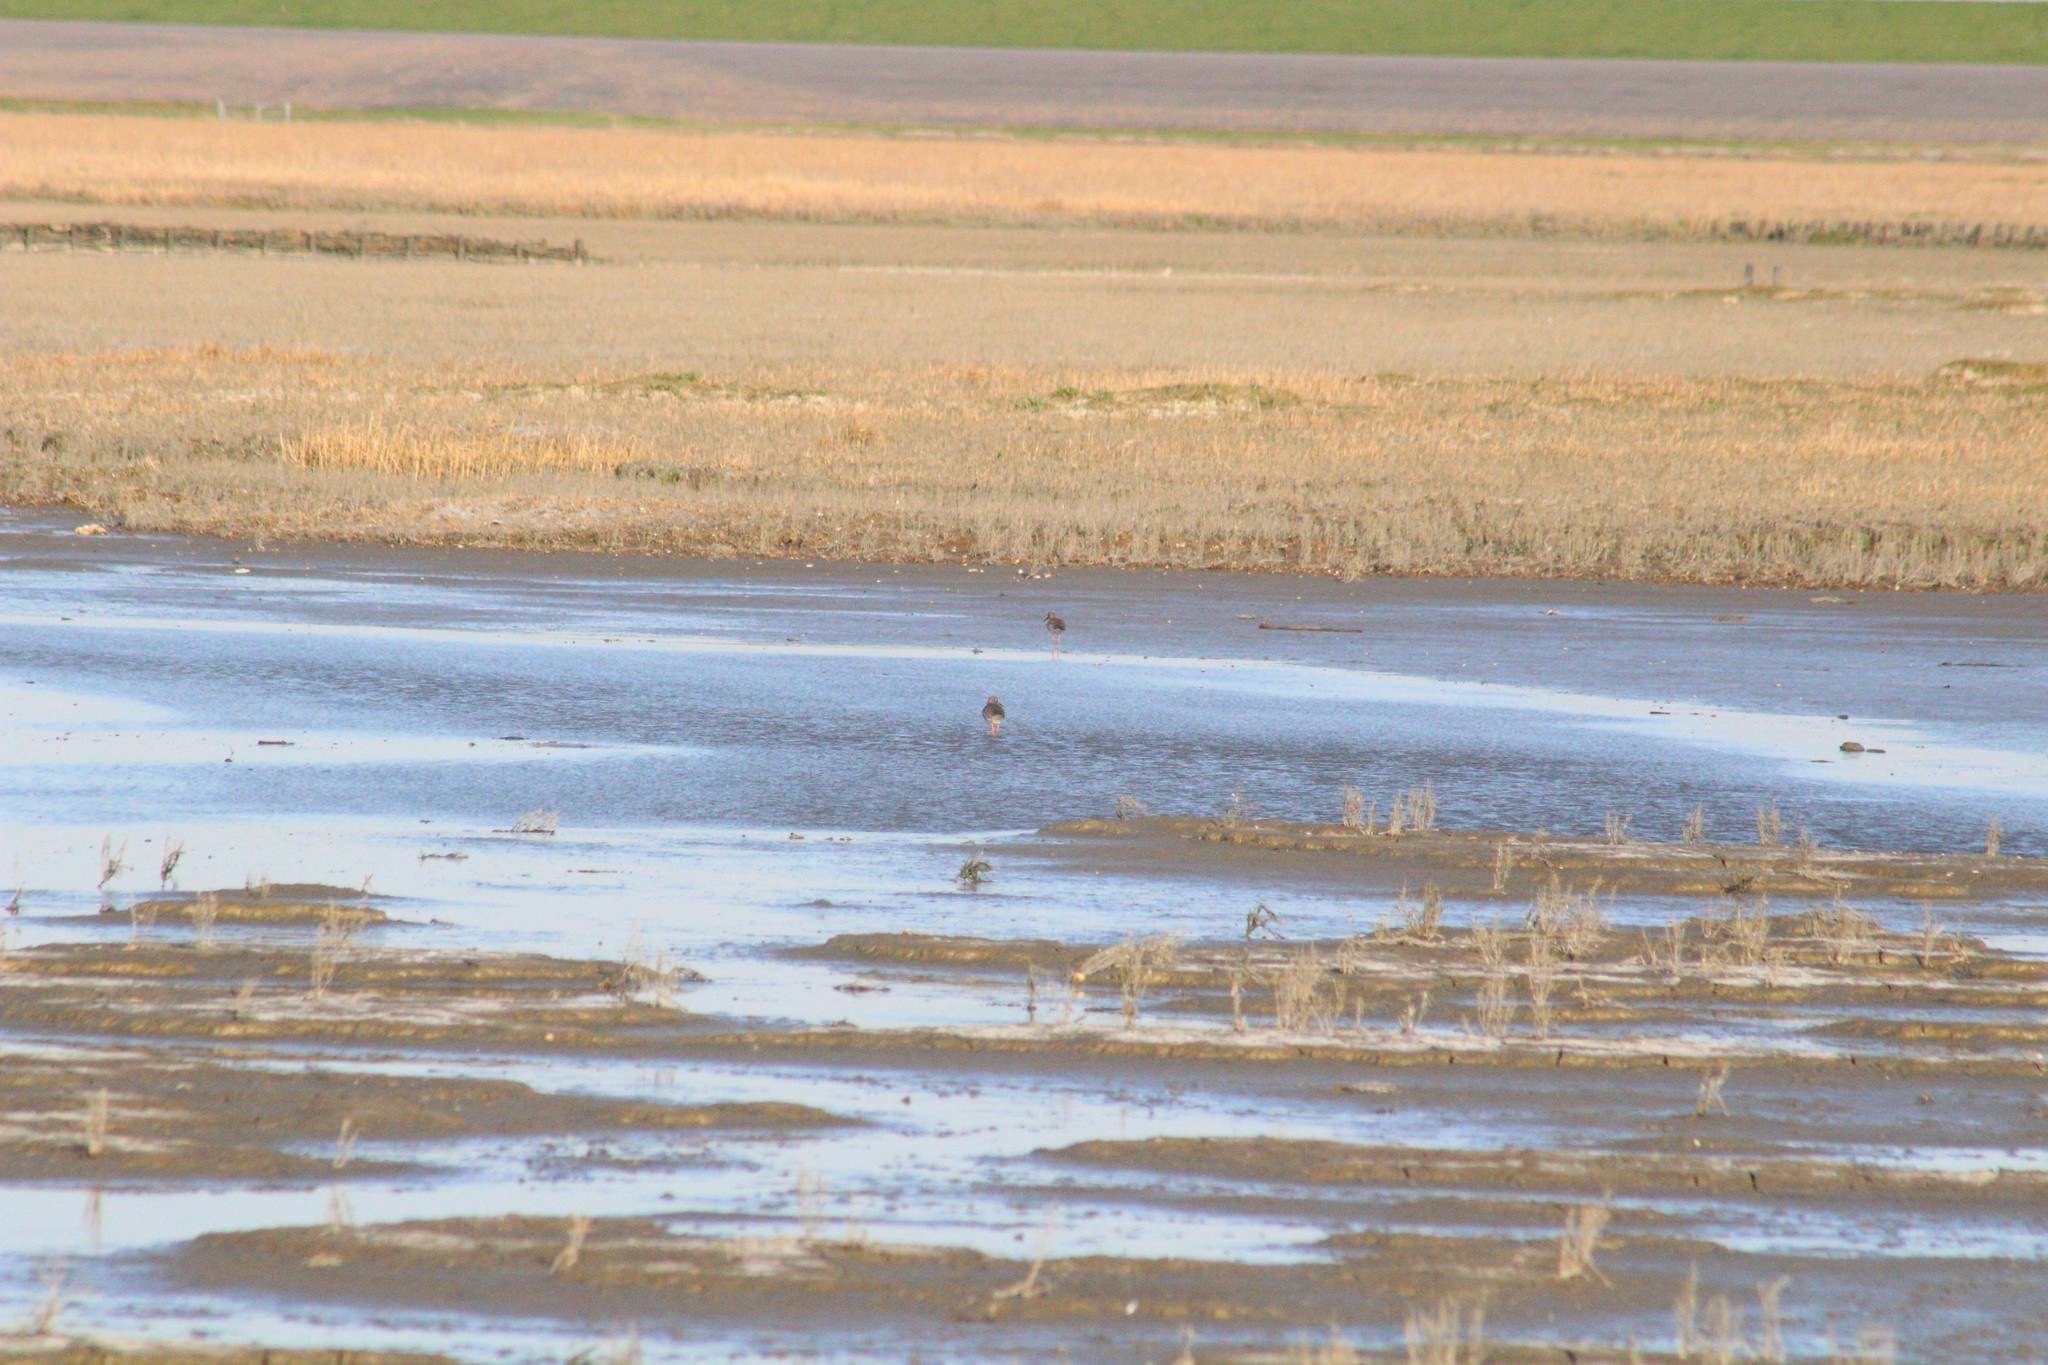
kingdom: Animalia
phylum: Chordata
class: Aves
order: Charadriiformes
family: Scolopacidae
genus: Tringa
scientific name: Tringa totanus
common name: Common redshank
